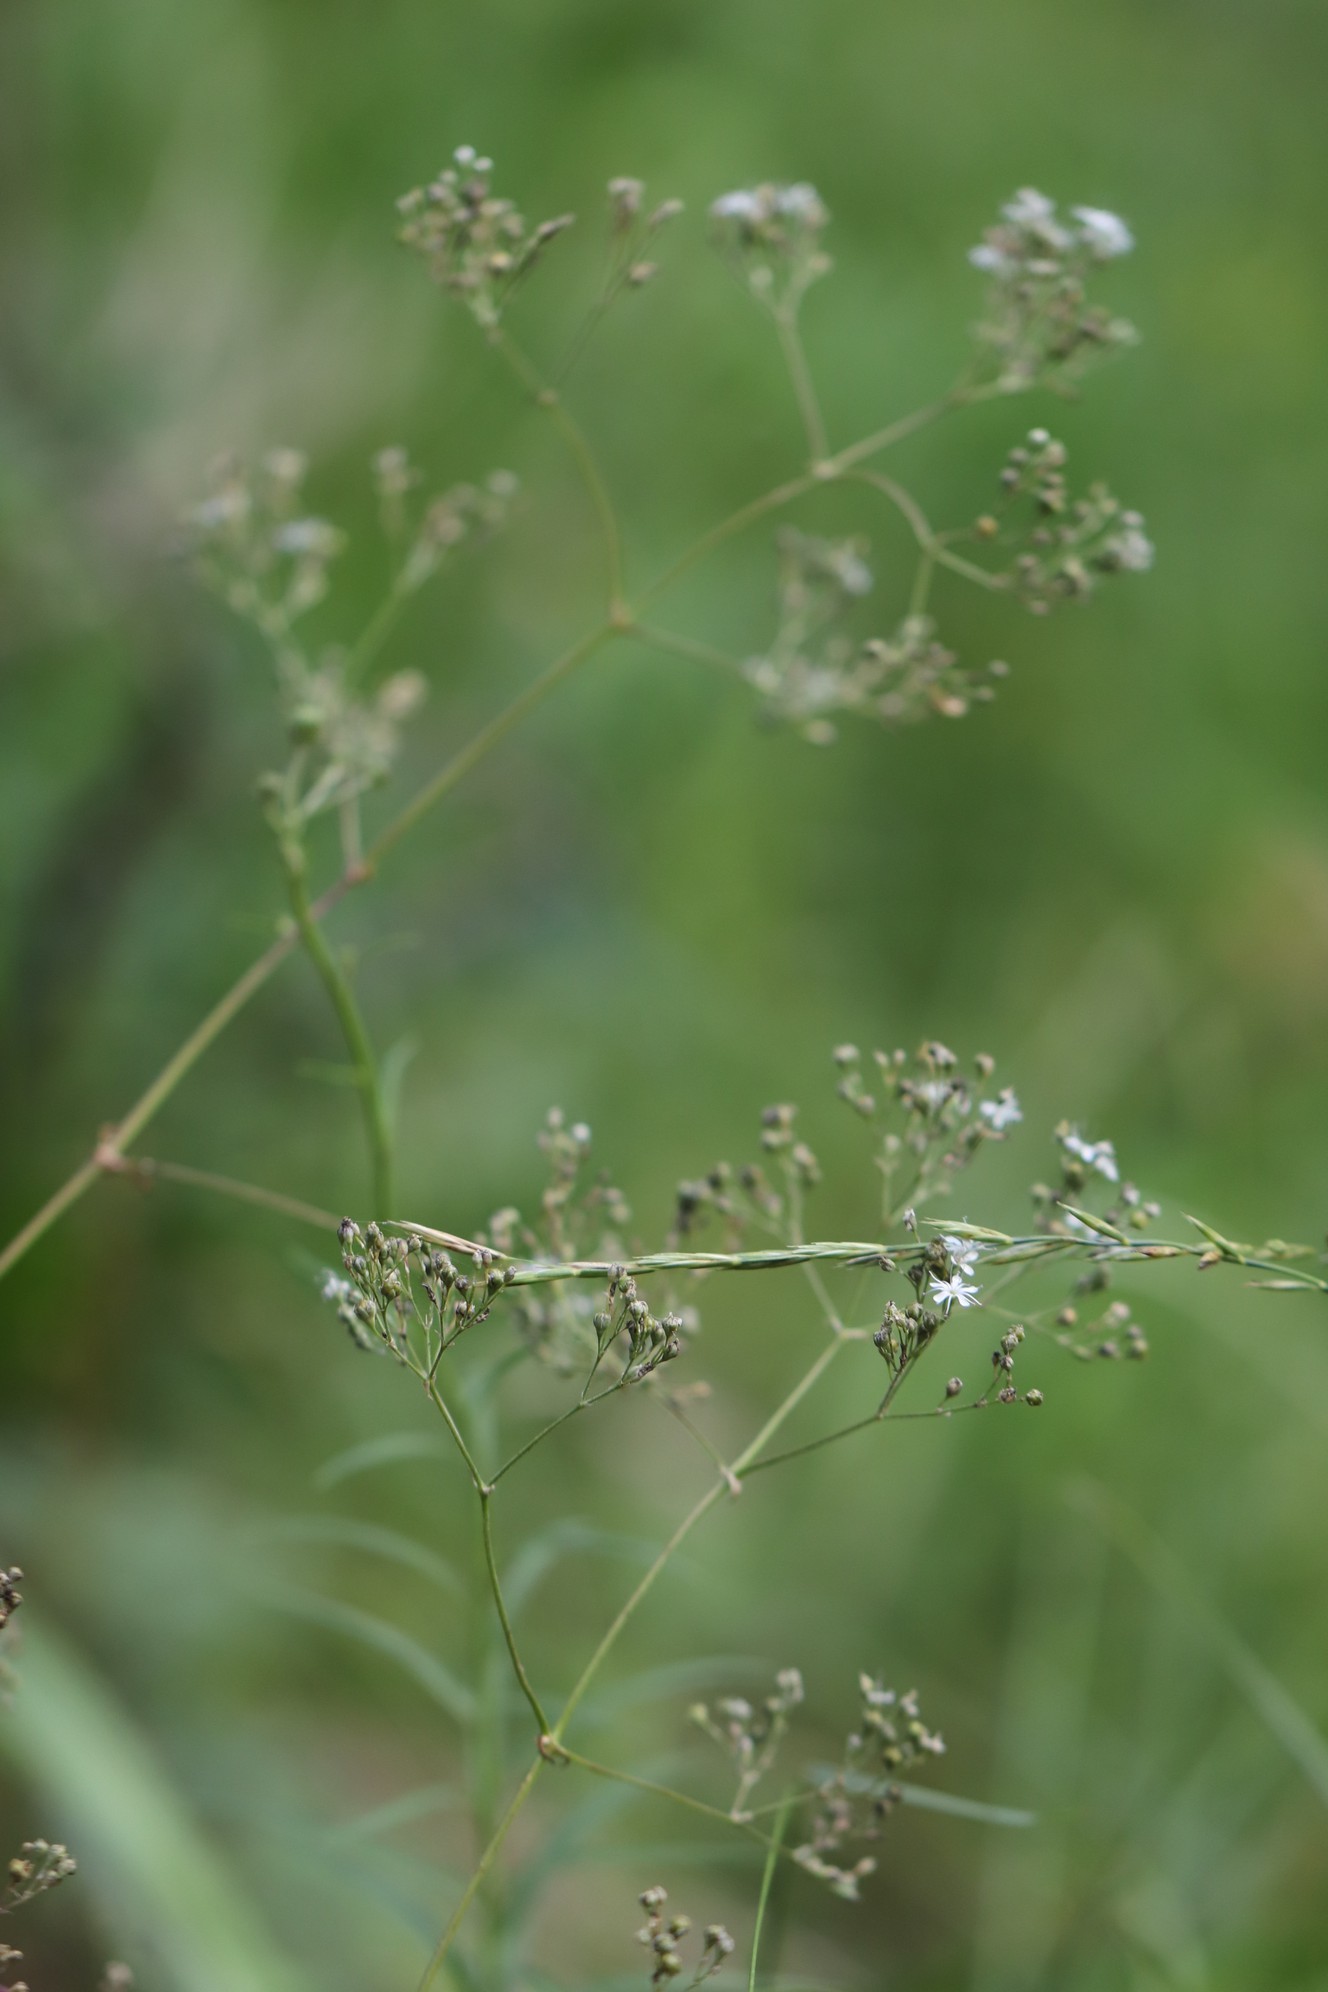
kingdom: Plantae
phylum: Tracheophyta
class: Magnoliopsida
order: Caryophyllales
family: Caryophyllaceae
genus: Gypsophila
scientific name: Gypsophila altissima
